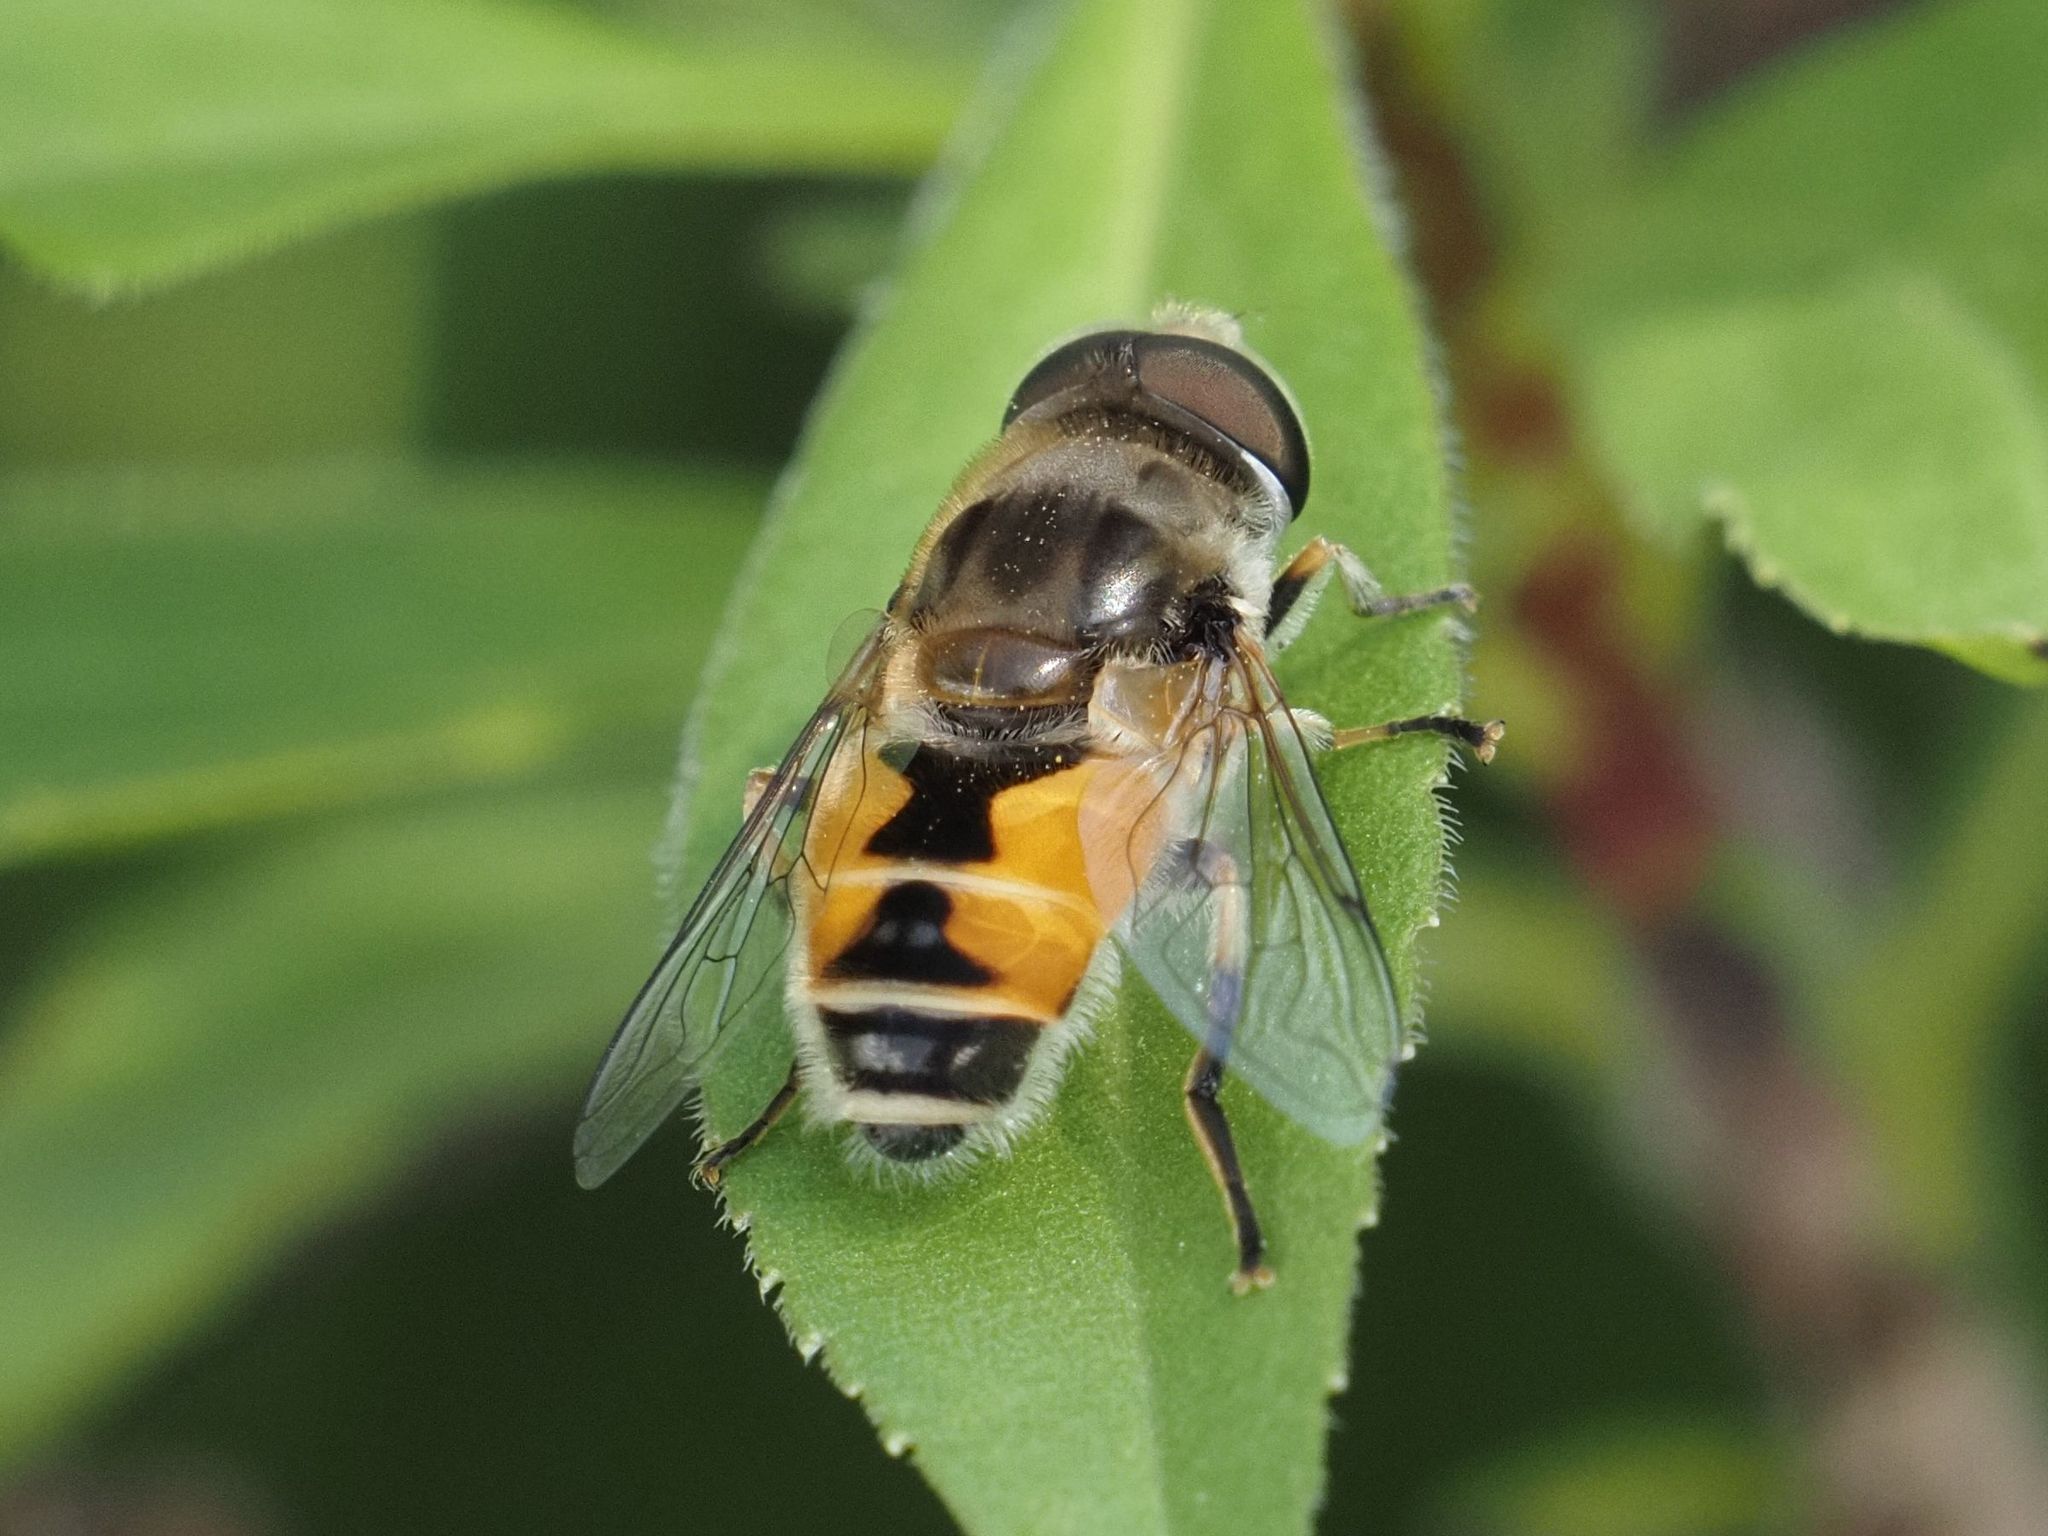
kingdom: Animalia
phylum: Arthropoda
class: Insecta
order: Diptera
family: Syrphidae
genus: Eristalis
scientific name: Eristalis arbustorum
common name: Hover fly
